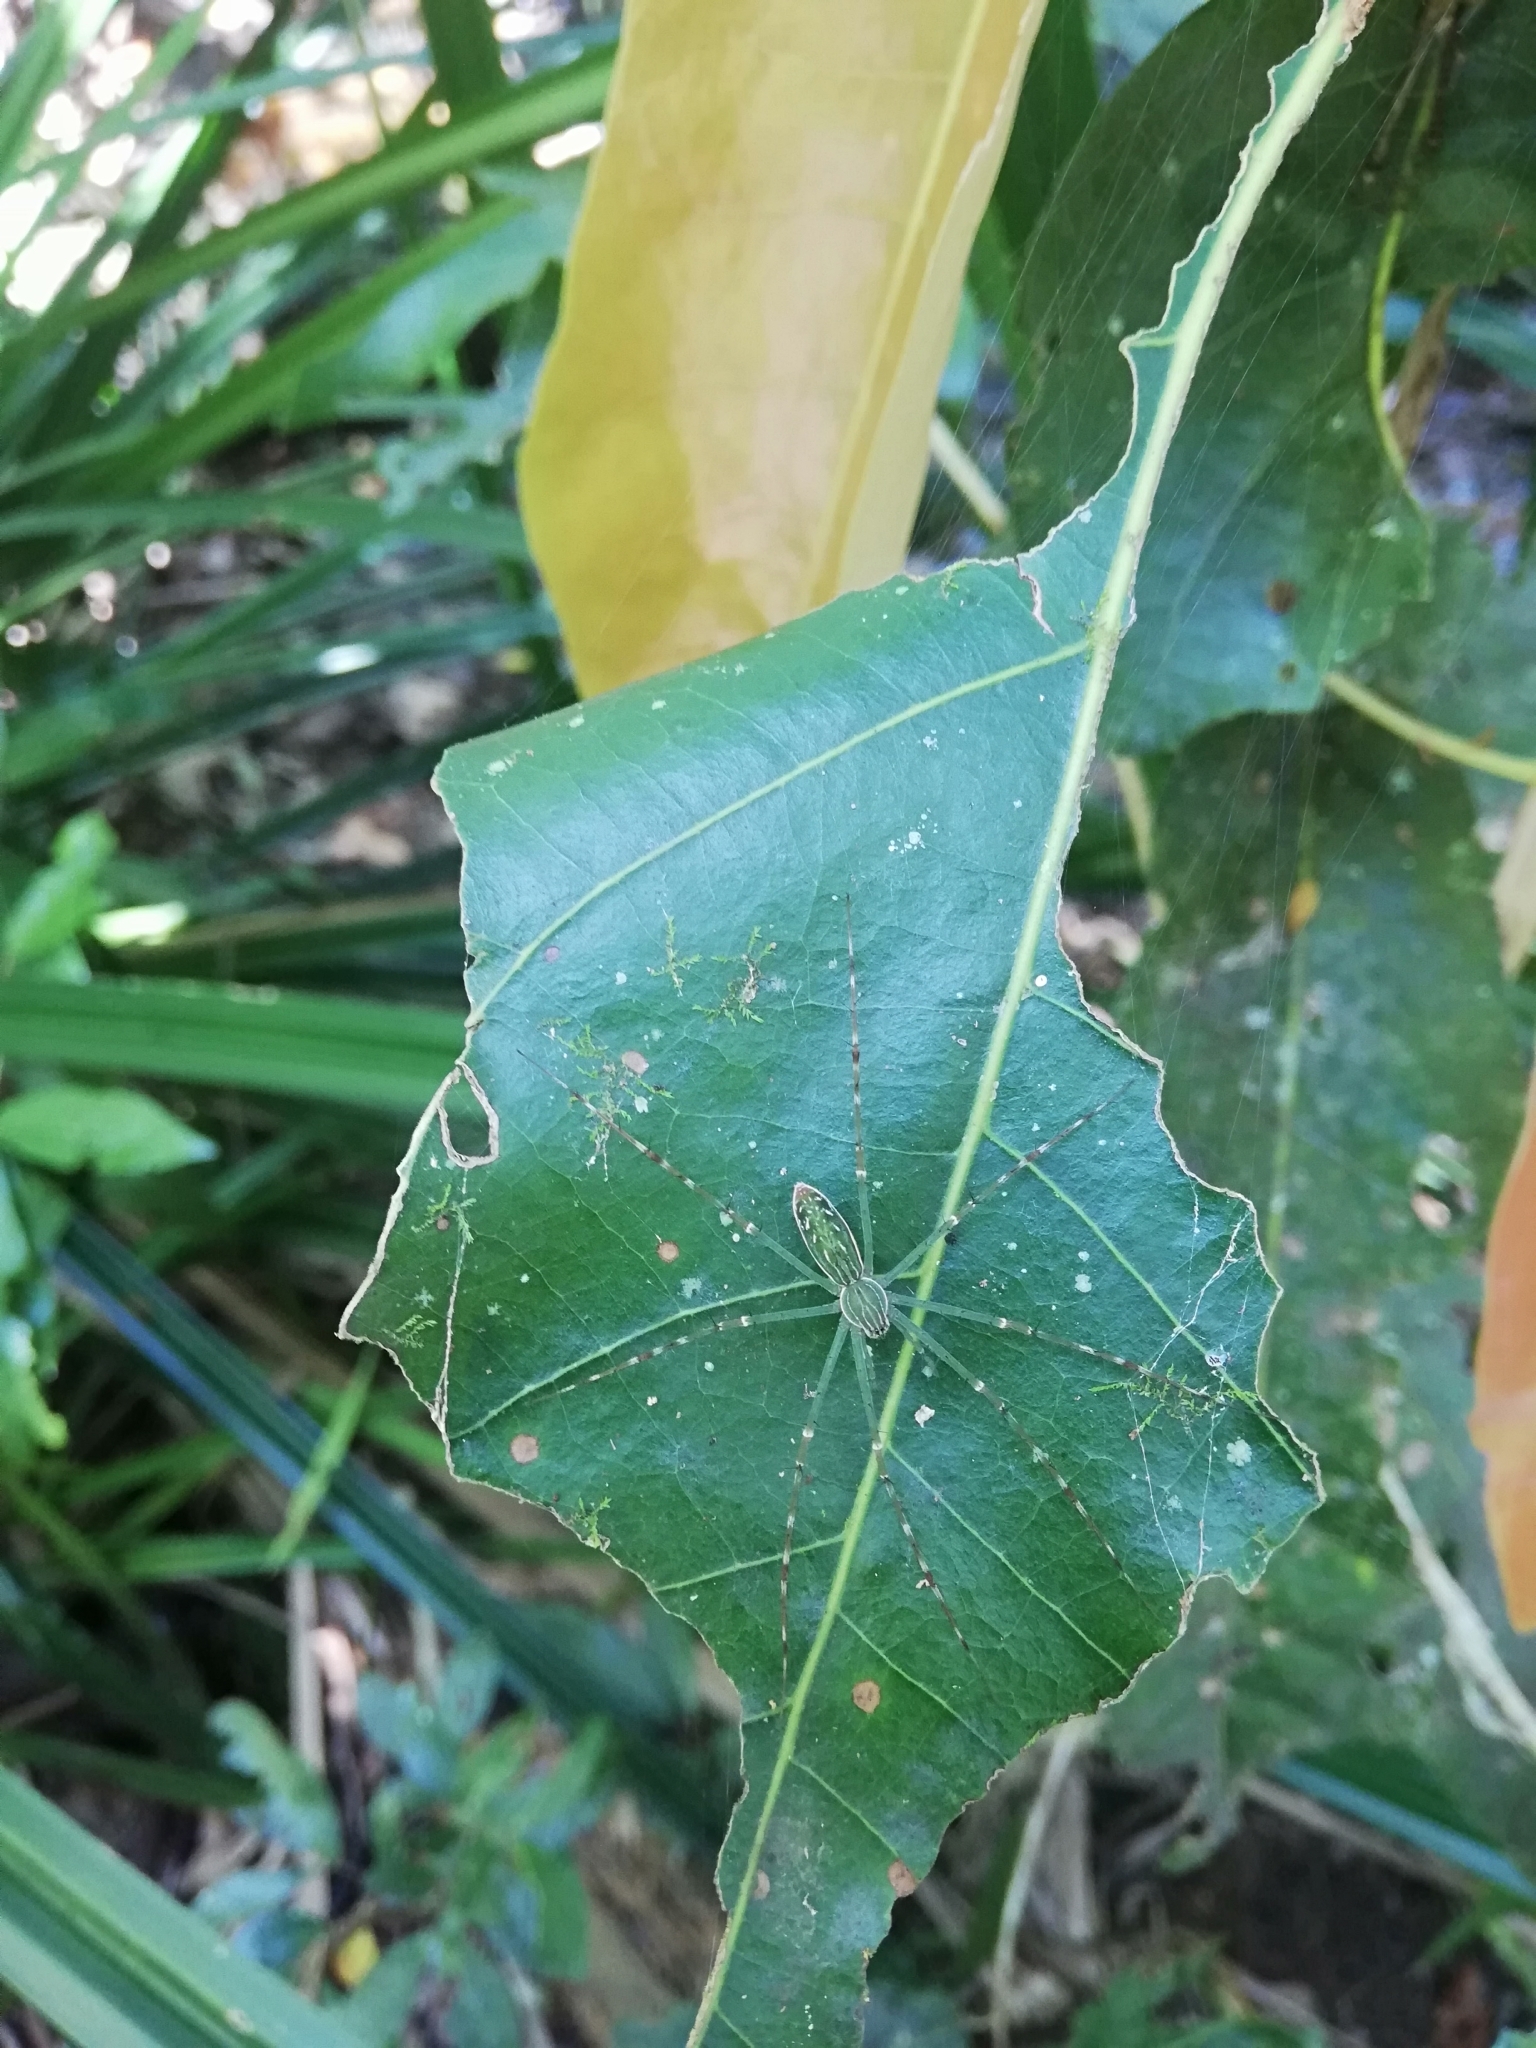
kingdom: Animalia
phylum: Arthropoda
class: Arachnida
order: Araneae
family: Pisauridae
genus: Hygropoda
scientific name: Hygropoda lineata
